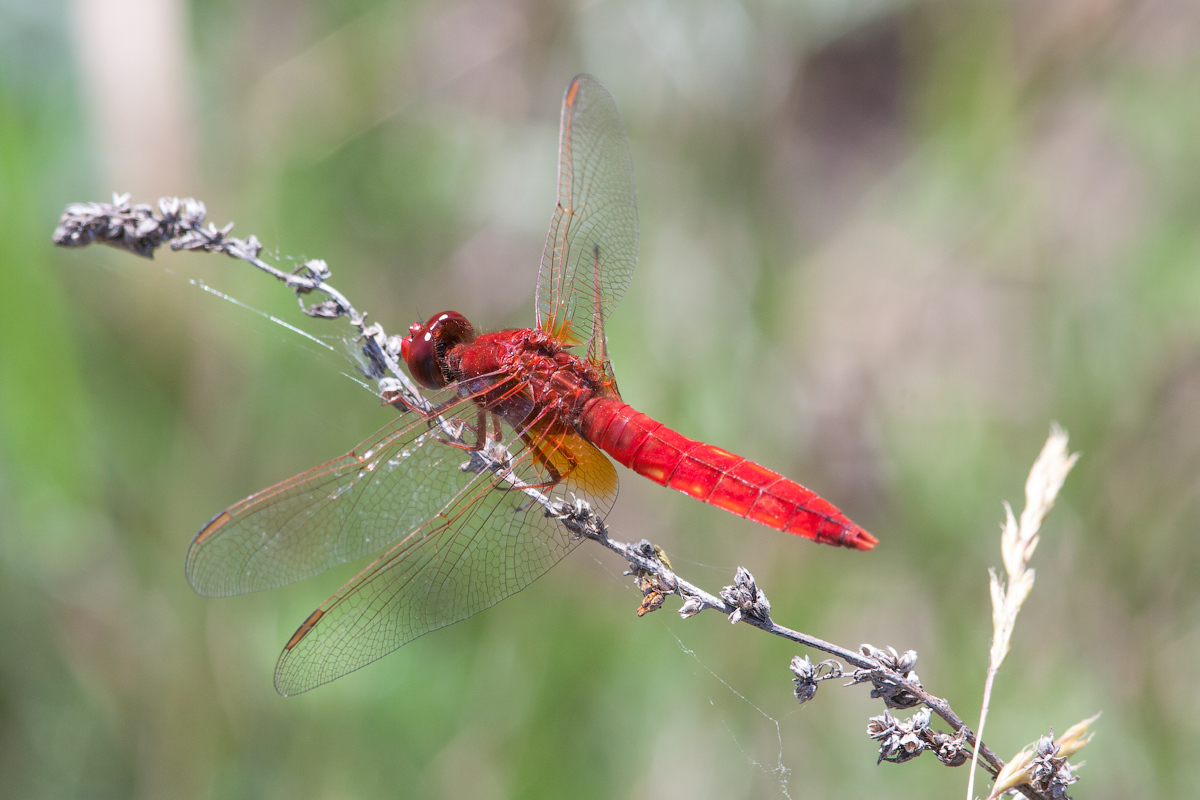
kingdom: Animalia
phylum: Arthropoda
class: Insecta
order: Odonata
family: Libellulidae
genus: Crocothemis
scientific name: Crocothemis erythraea
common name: Scarlet dragonfly
